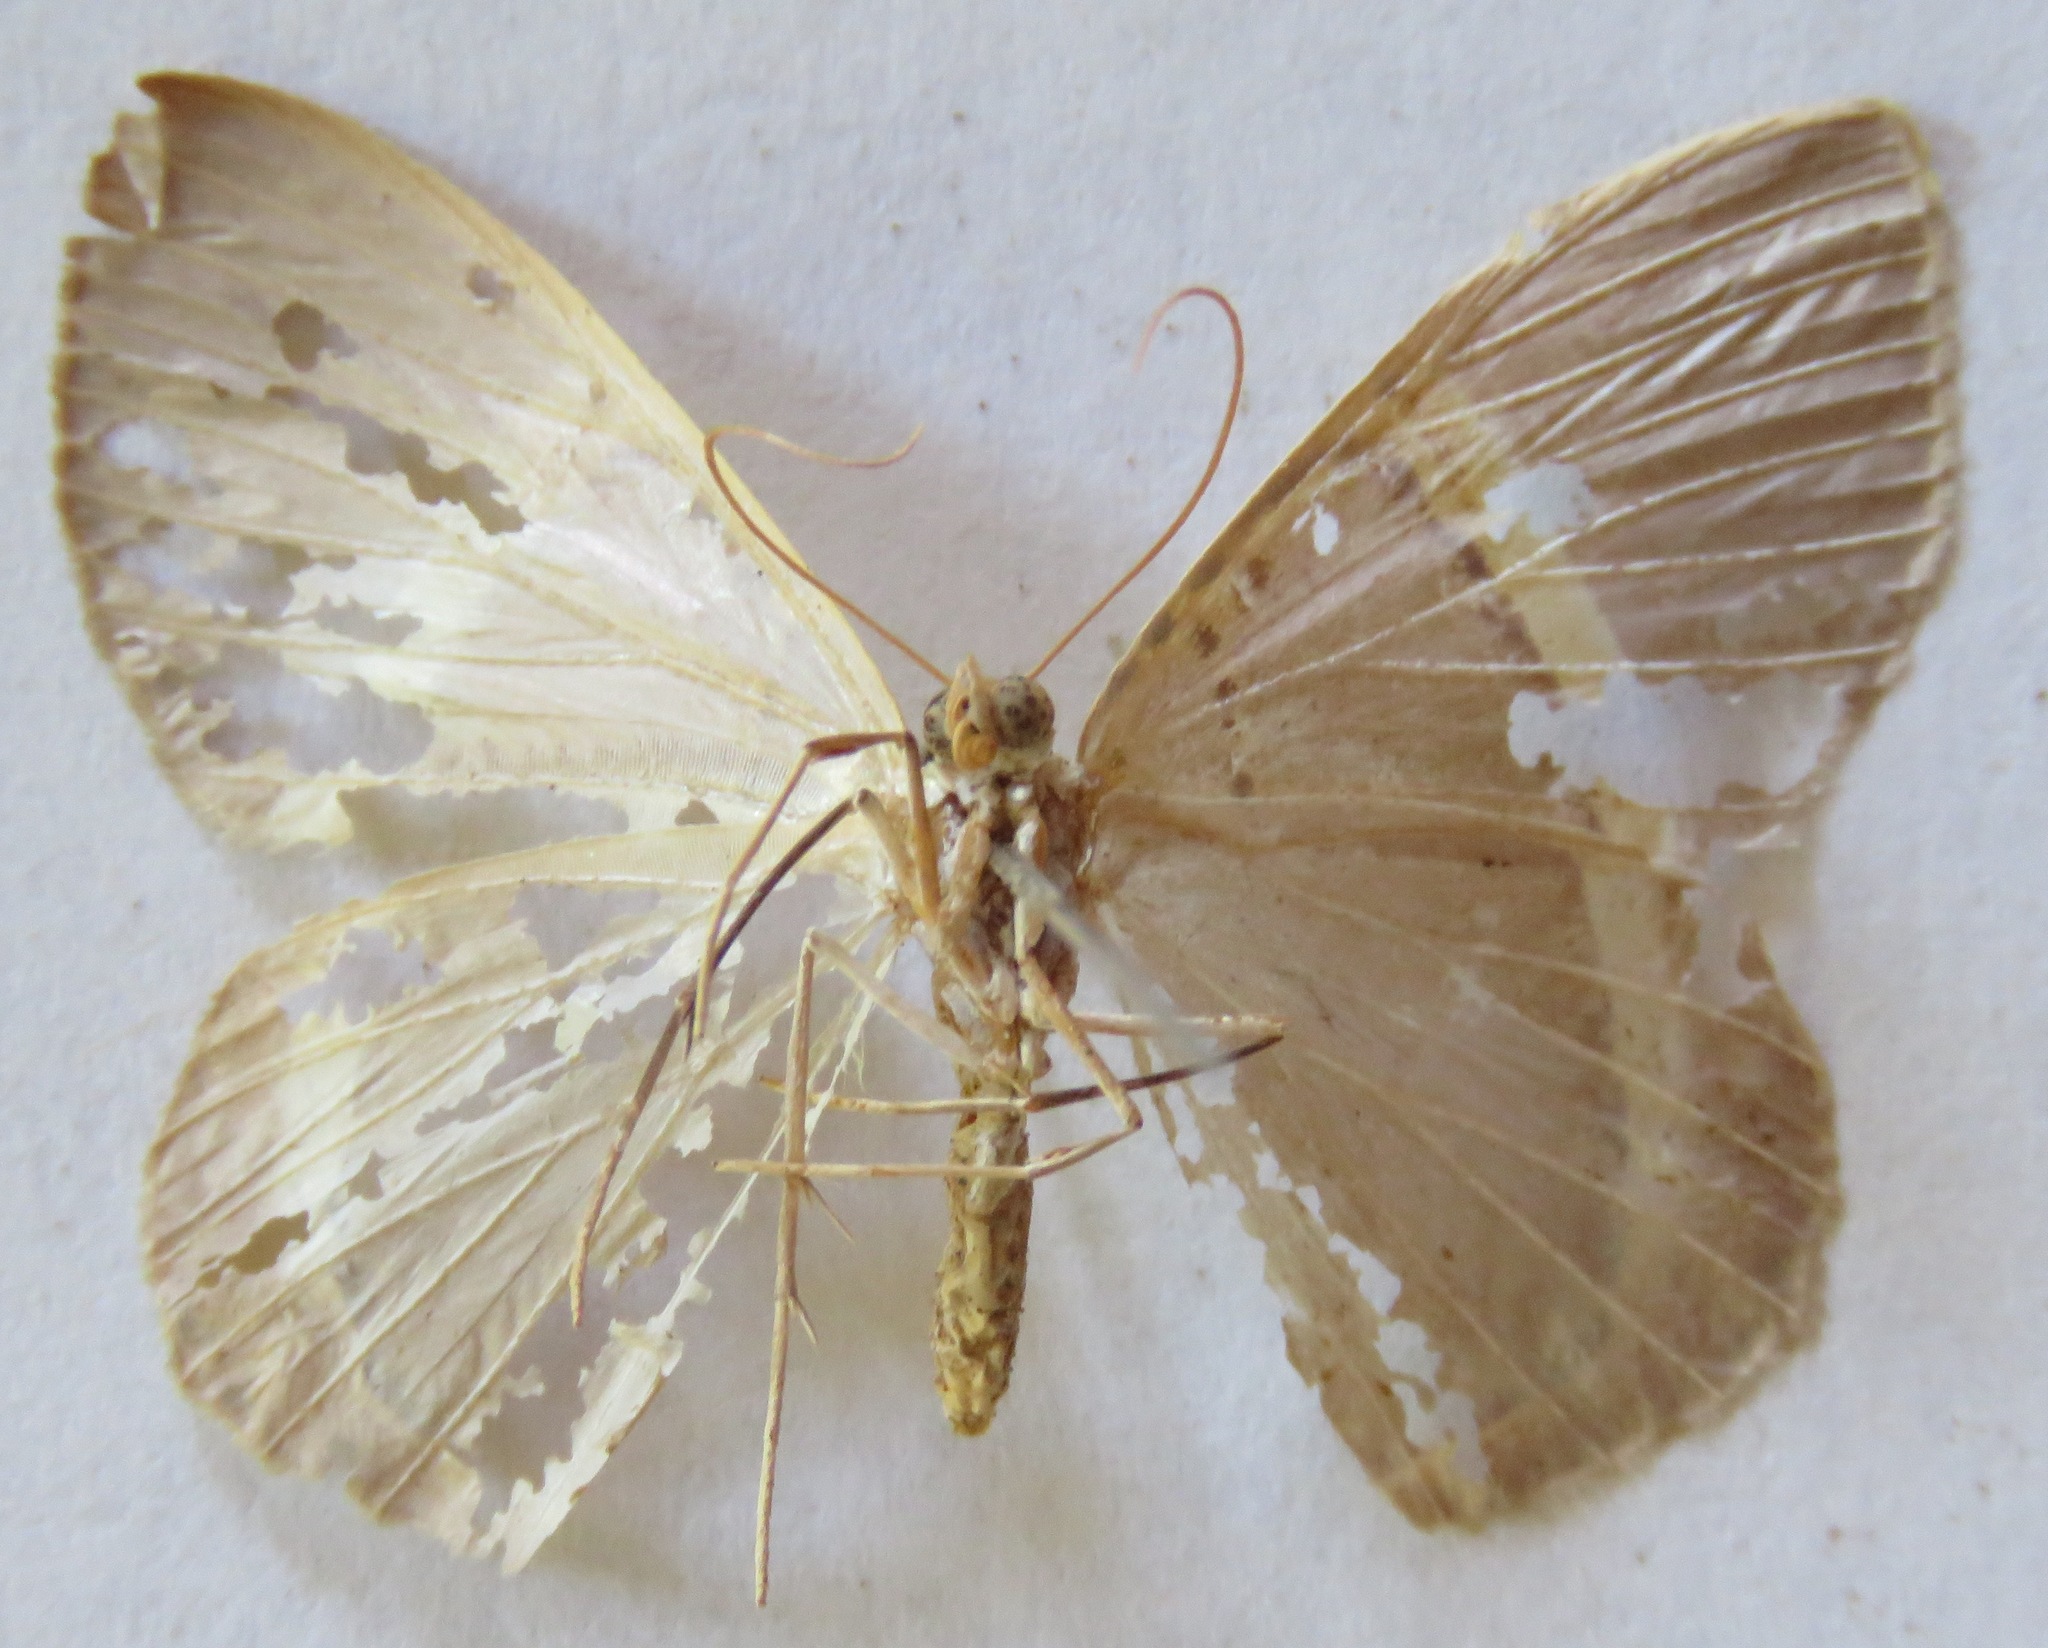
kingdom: Animalia
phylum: Arthropoda
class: Insecta
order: Lepidoptera
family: Geometridae
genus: Phrygionis
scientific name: Phrygionis privignaria
